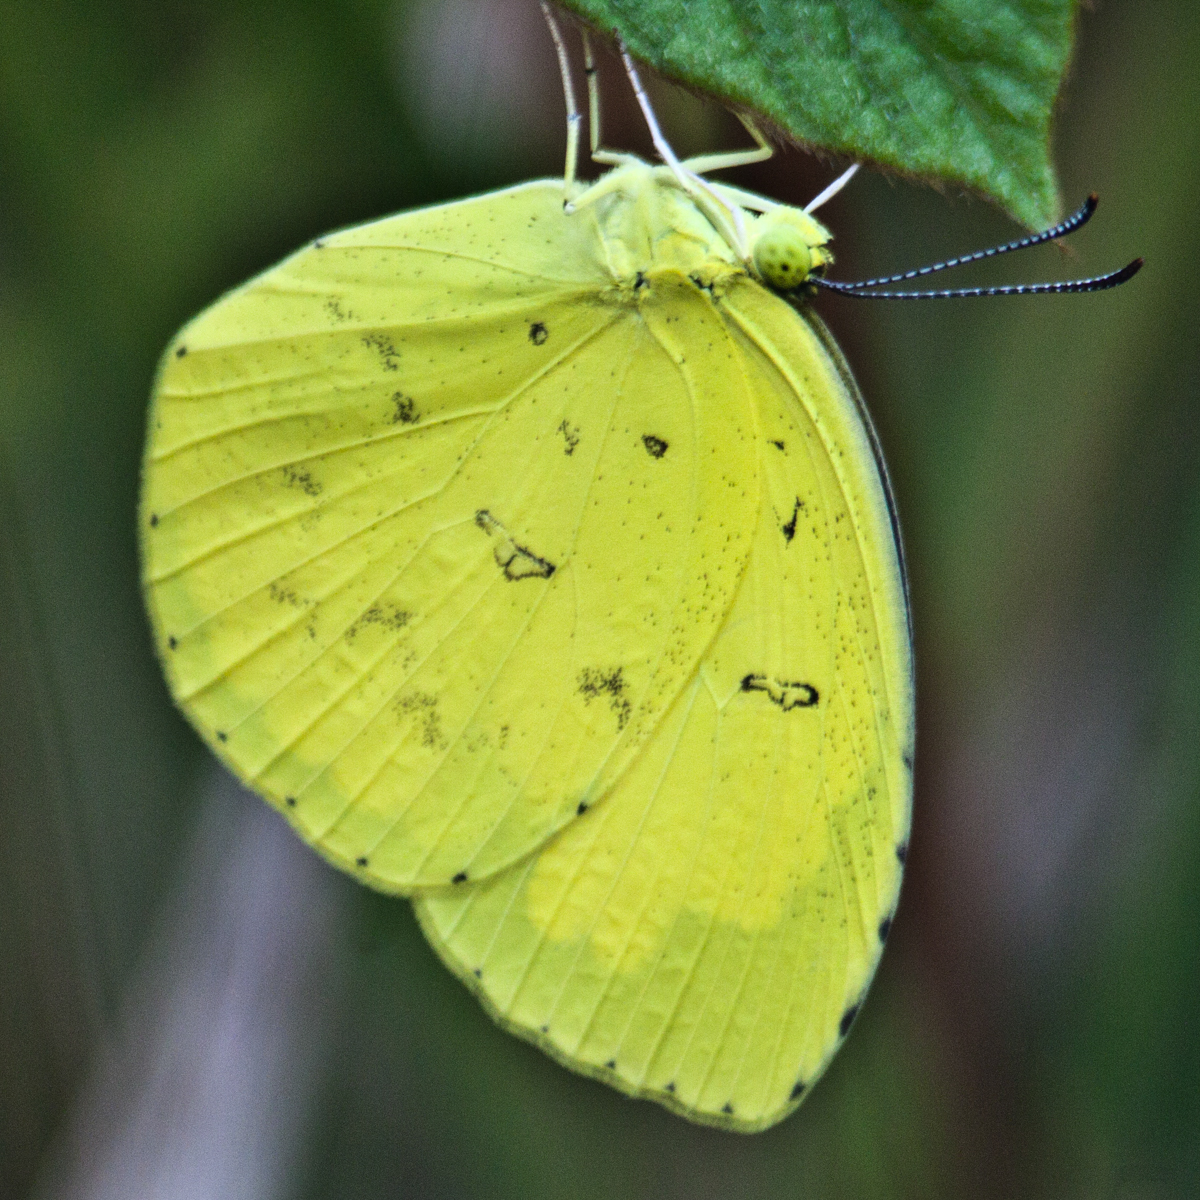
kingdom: Animalia
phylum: Arthropoda
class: Insecta
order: Lepidoptera
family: Pieridae
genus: Eurema
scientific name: Eurema simulatrix
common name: Hill grass yellow
